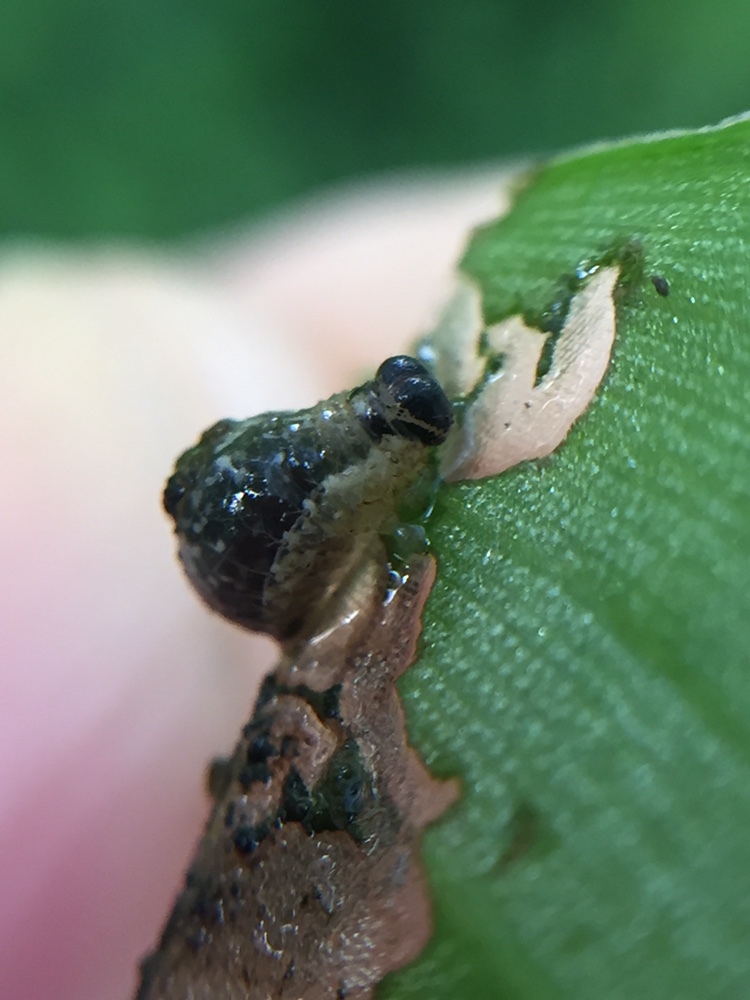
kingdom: Animalia
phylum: Arthropoda
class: Insecta
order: Coleoptera
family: Chrysomelidae
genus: Neolema
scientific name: Neolema ogloblini
